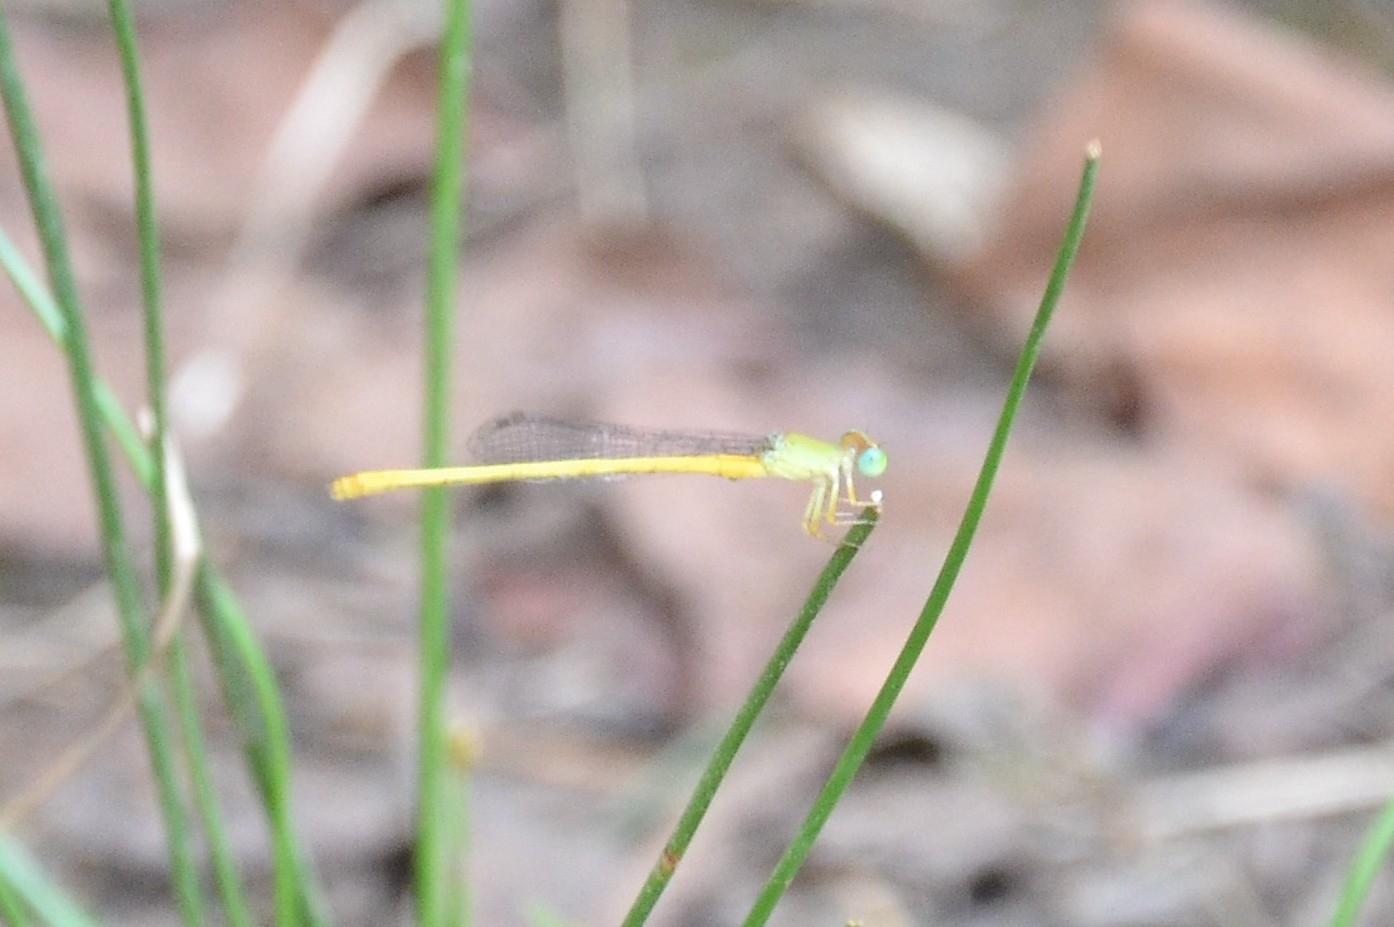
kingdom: Animalia
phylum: Arthropoda
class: Insecta
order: Odonata
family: Coenagrionidae
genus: Ceriagrion
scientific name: Ceriagrion coromandelianum
